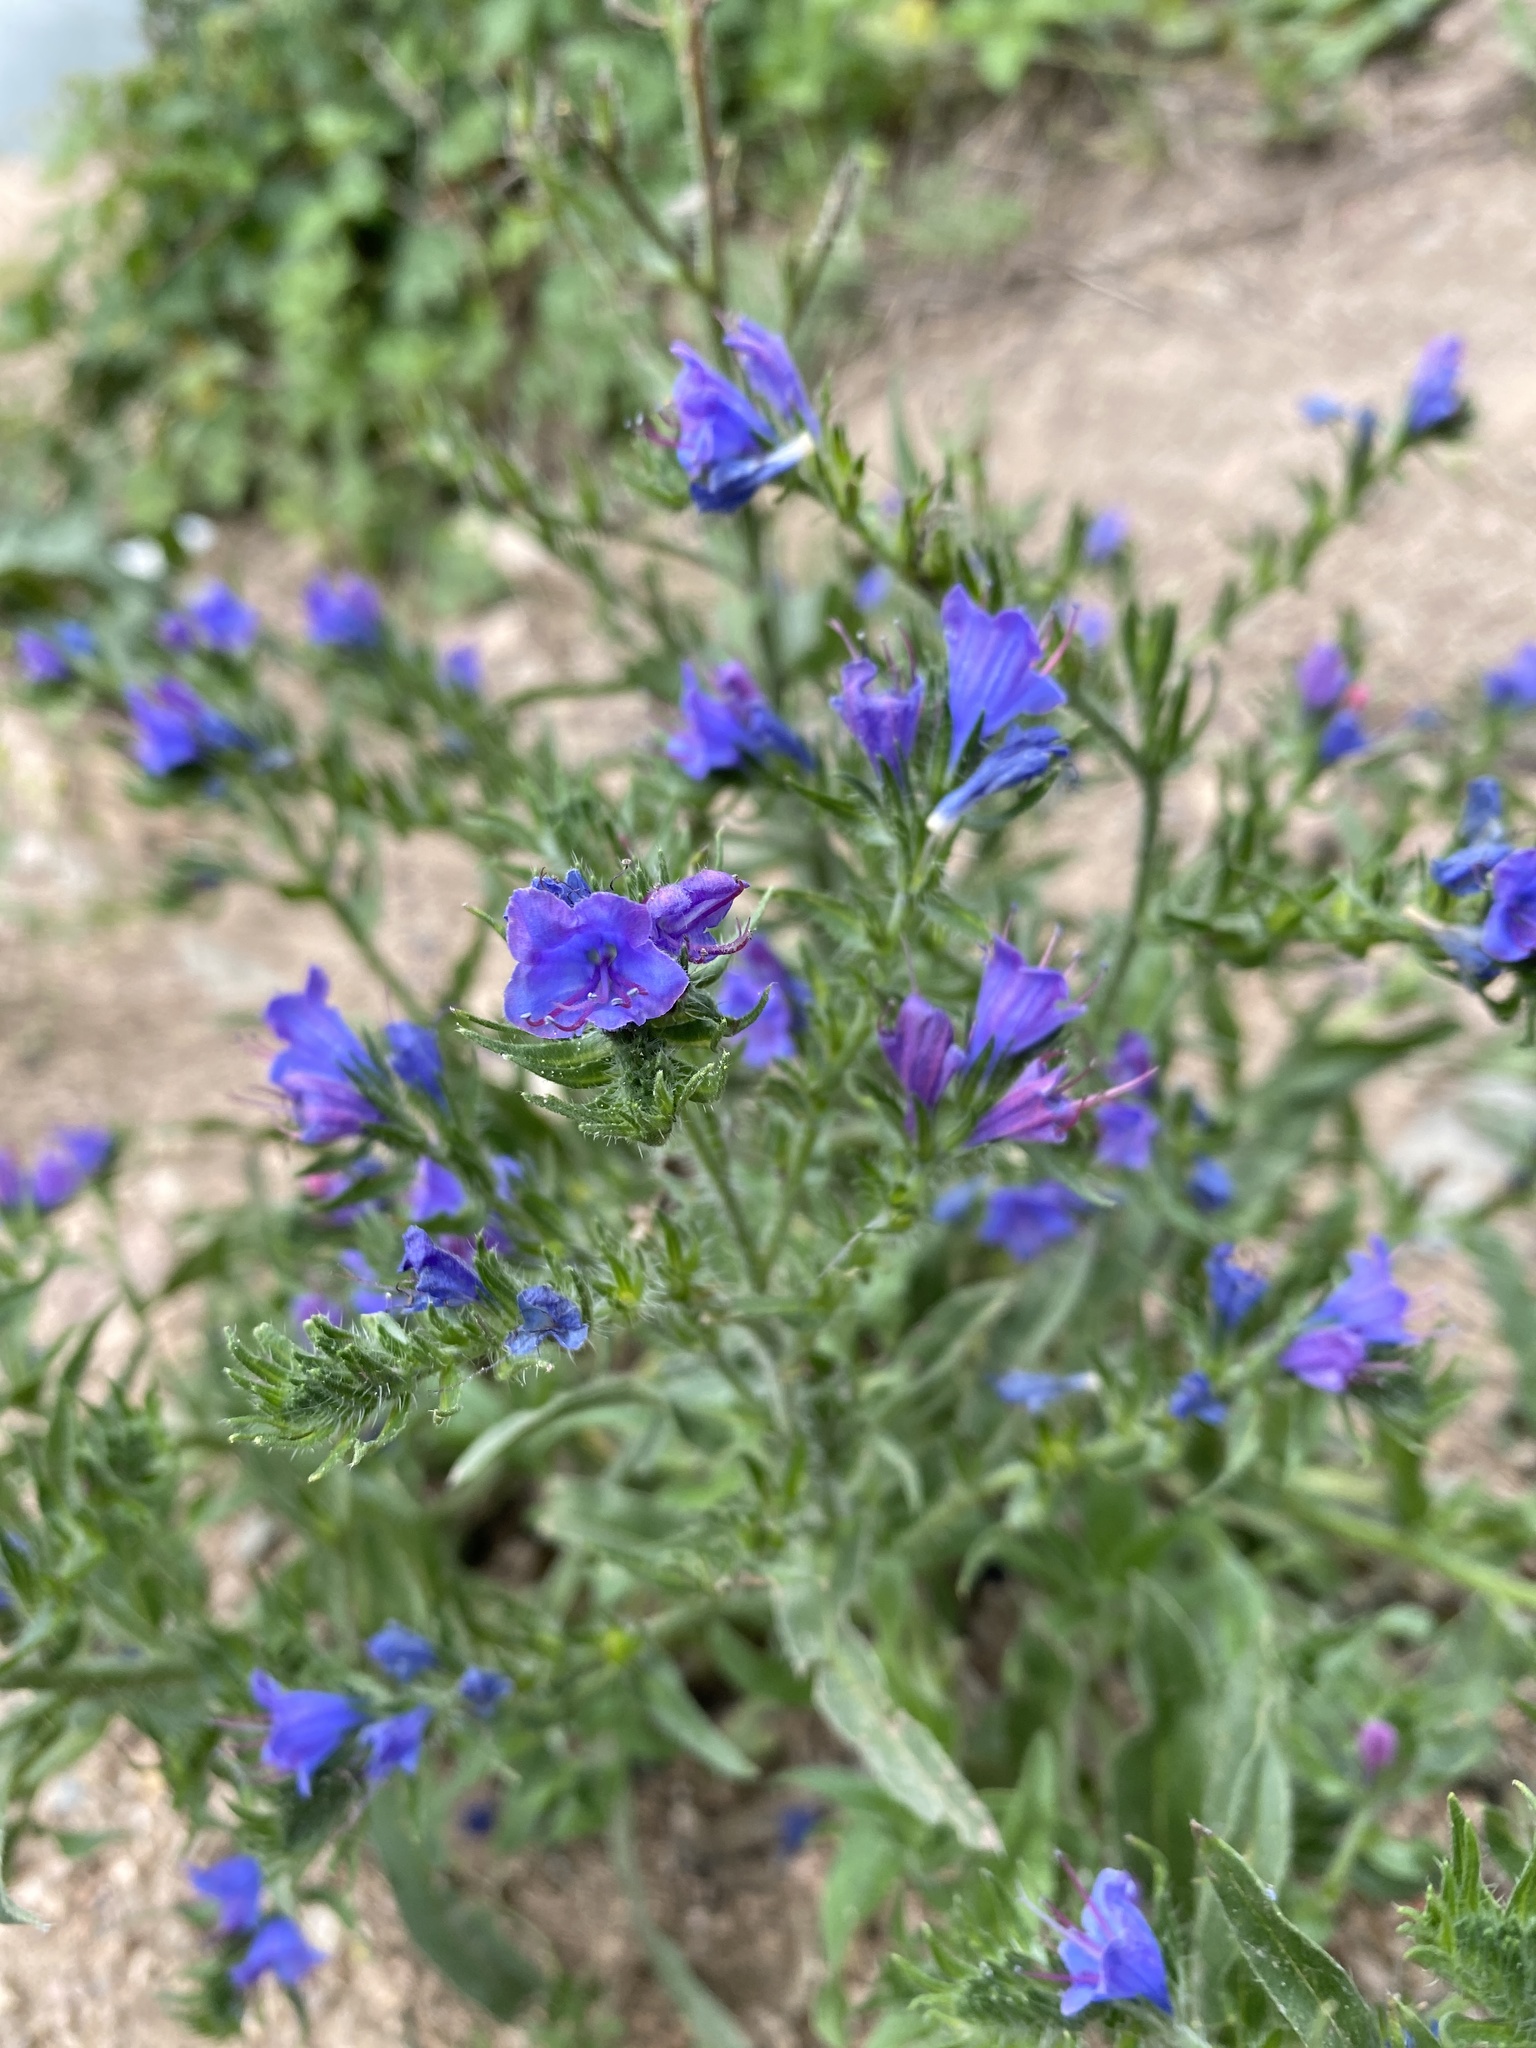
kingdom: Plantae
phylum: Tracheophyta
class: Magnoliopsida
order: Boraginales
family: Boraginaceae
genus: Echium
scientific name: Echium vulgare
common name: Common viper's bugloss
